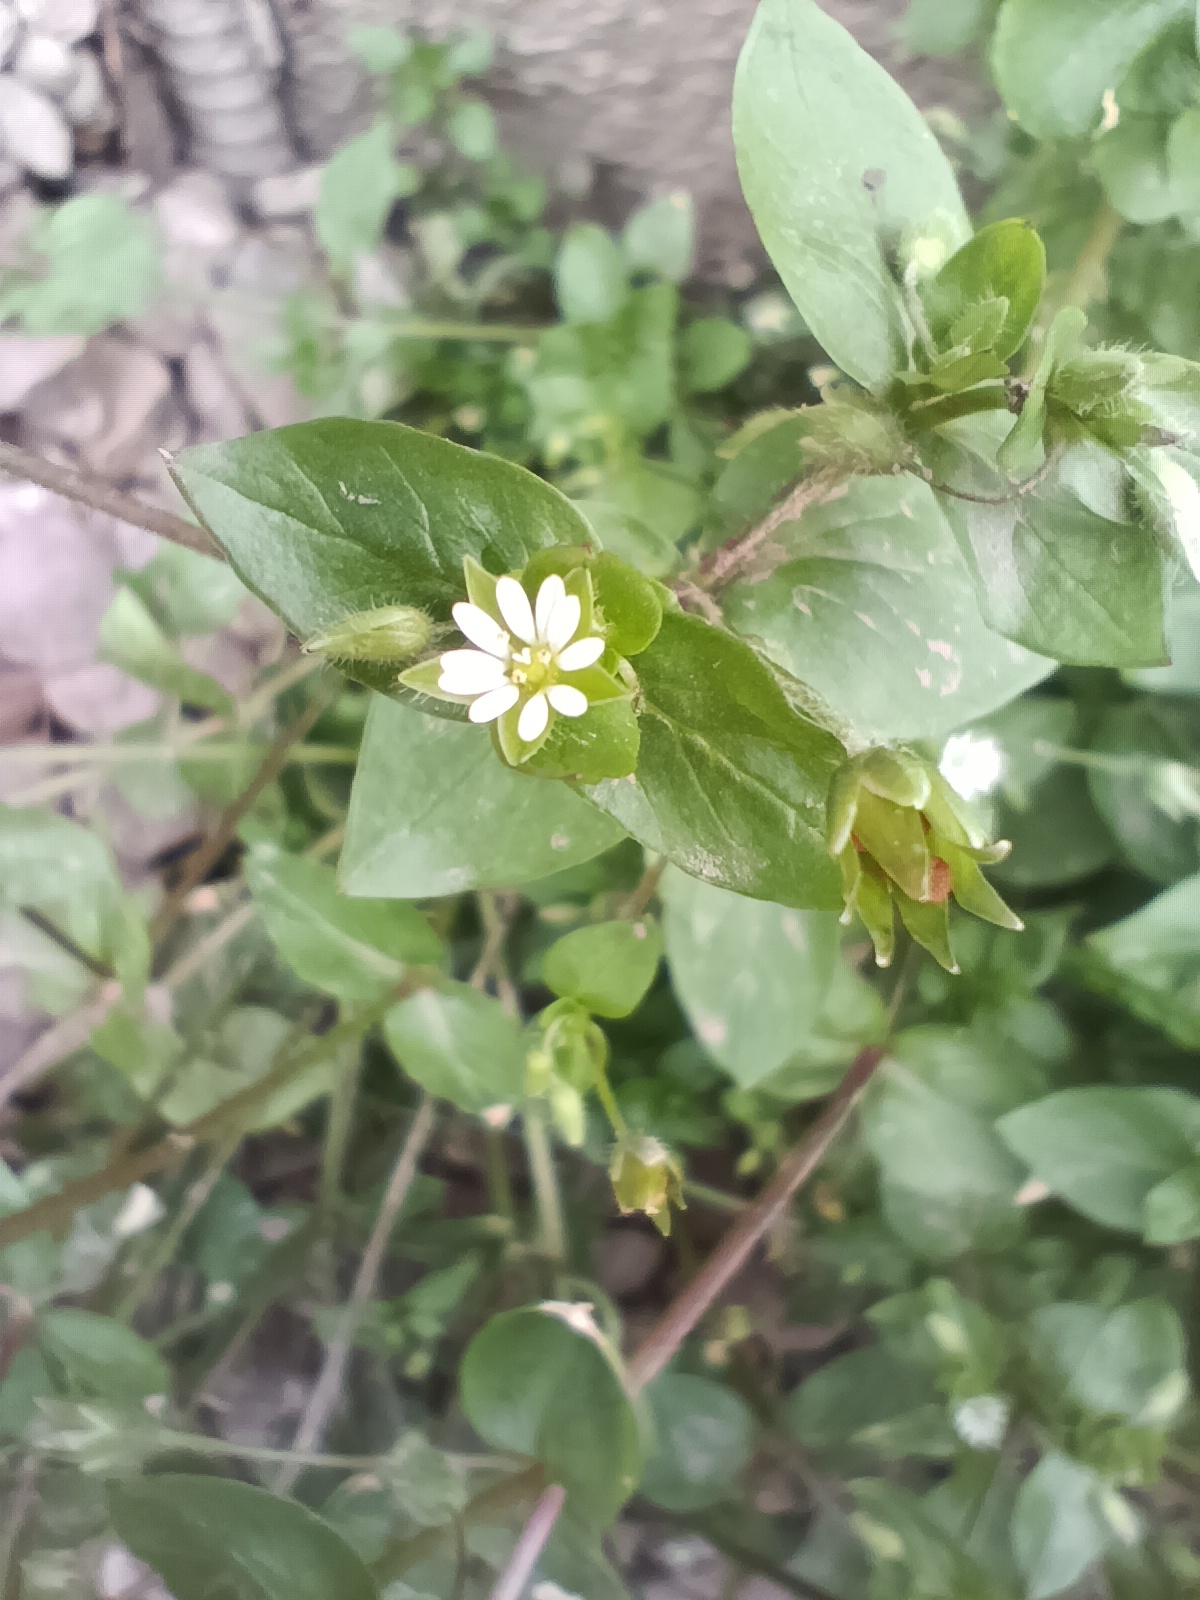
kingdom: Plantae
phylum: Tracheophyta
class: Magnoliopsida
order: Caryophyllales
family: Caryophyllaceae
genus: Stellaria
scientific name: Stellaria media
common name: Common chickweed
